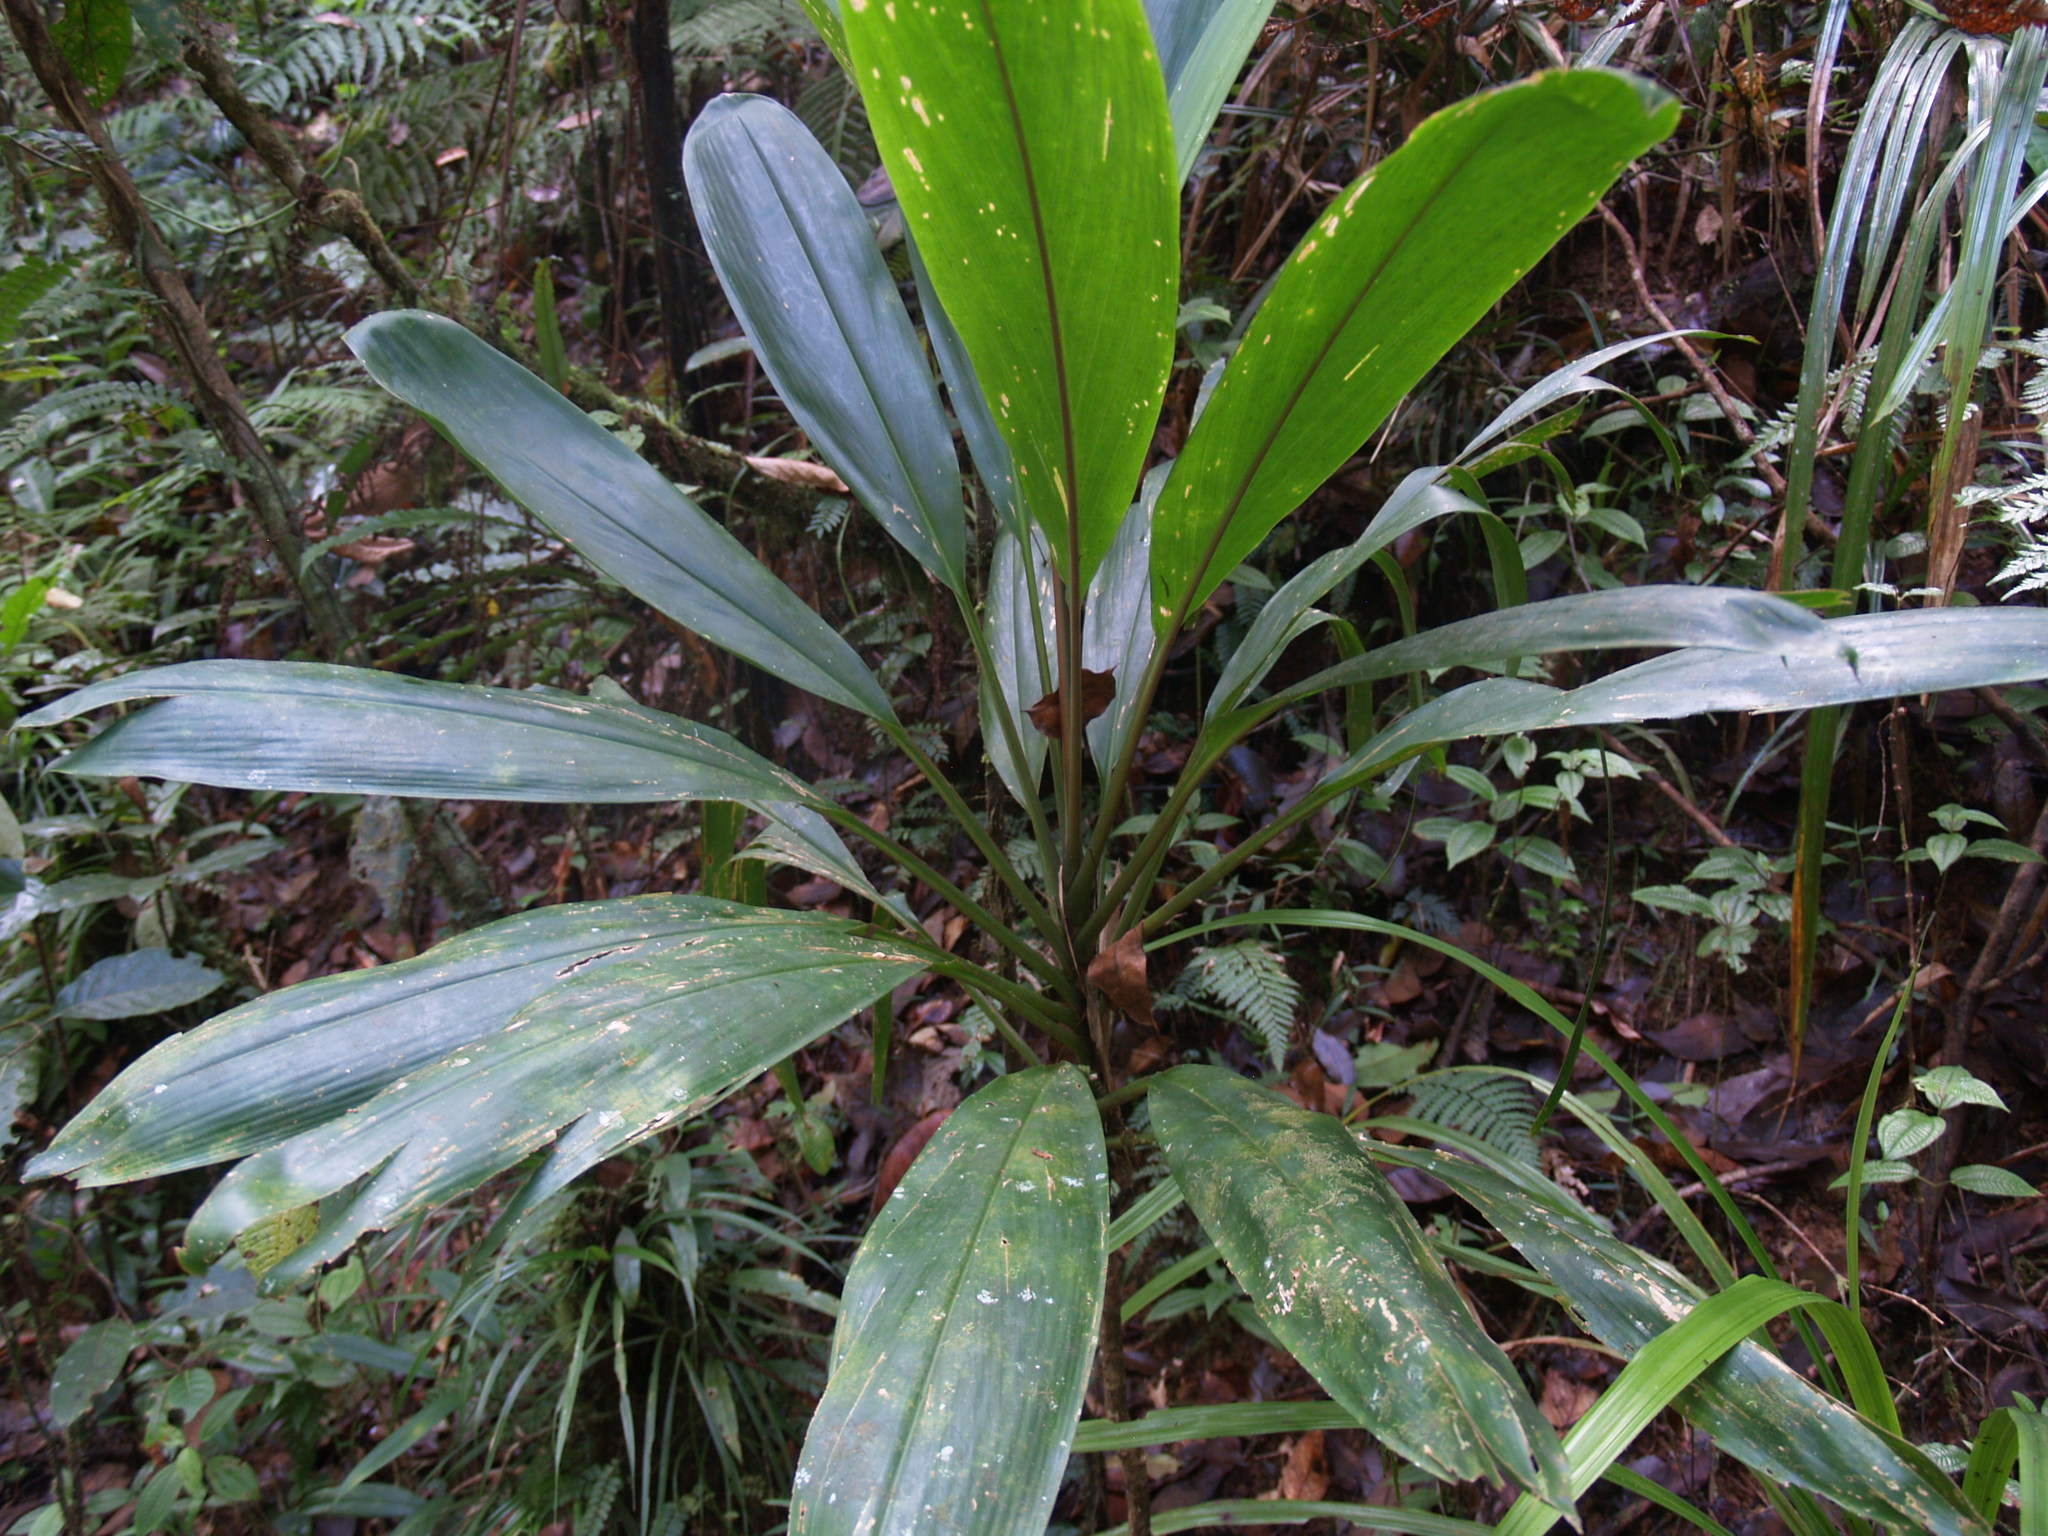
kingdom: Plantae
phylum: Tracheophyta
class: Liliopsida
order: Asparagales
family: Asparagaceae
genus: Cordyline
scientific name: Cordyline fruticosa
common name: Good-luck-plant
